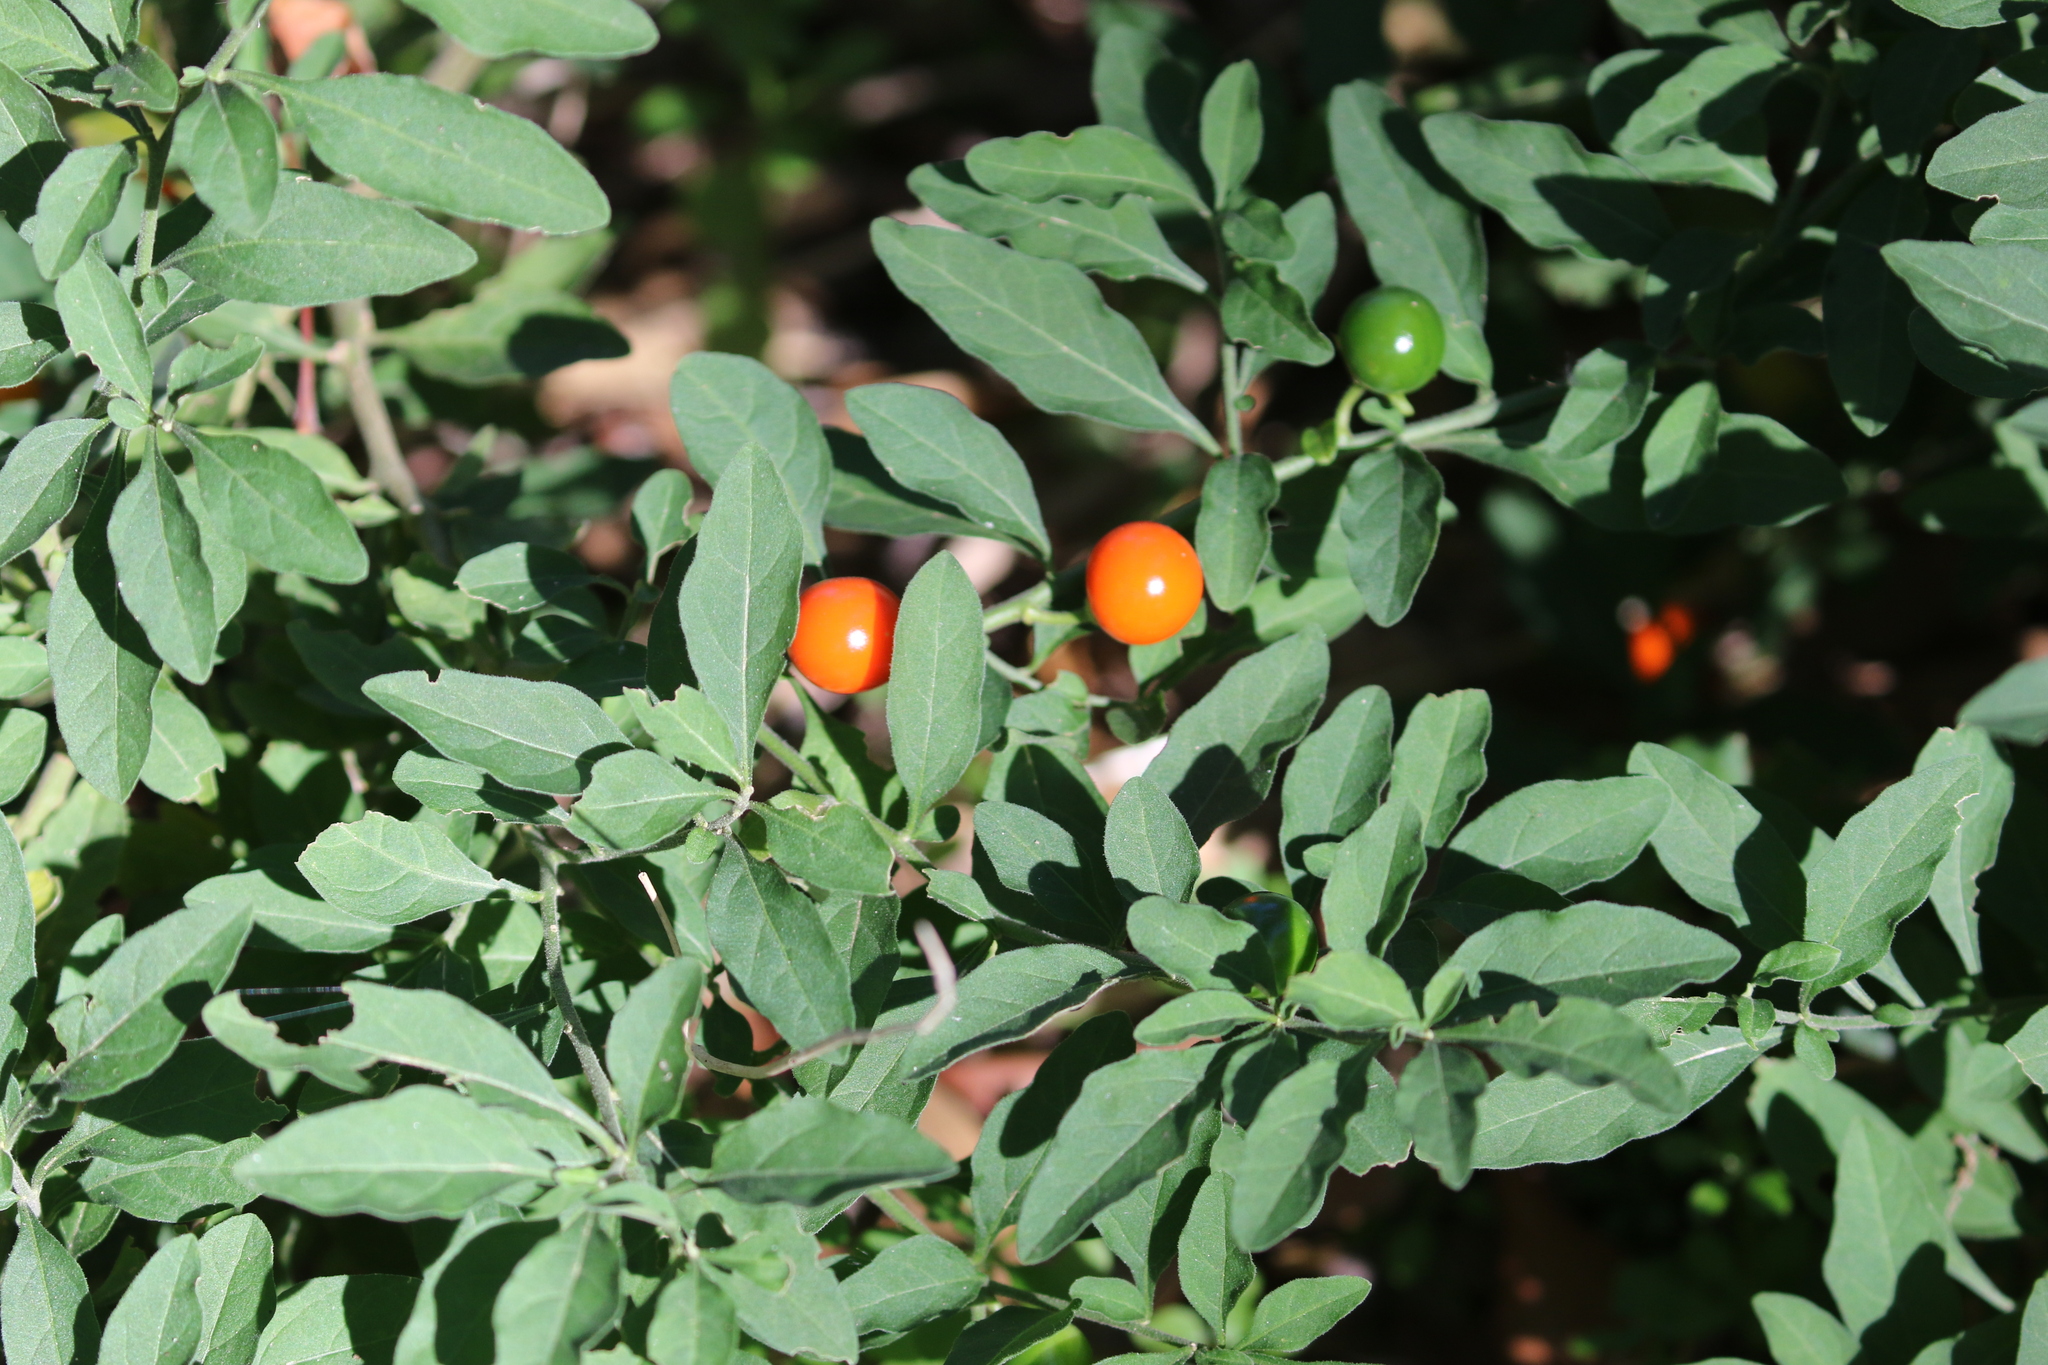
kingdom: Plantae
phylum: Tracheophyta
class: Magnoliopsida
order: Solanales
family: Solanaceae
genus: Solanum
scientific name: Solanum pseudocapsicum
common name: Jerusalem cherry
